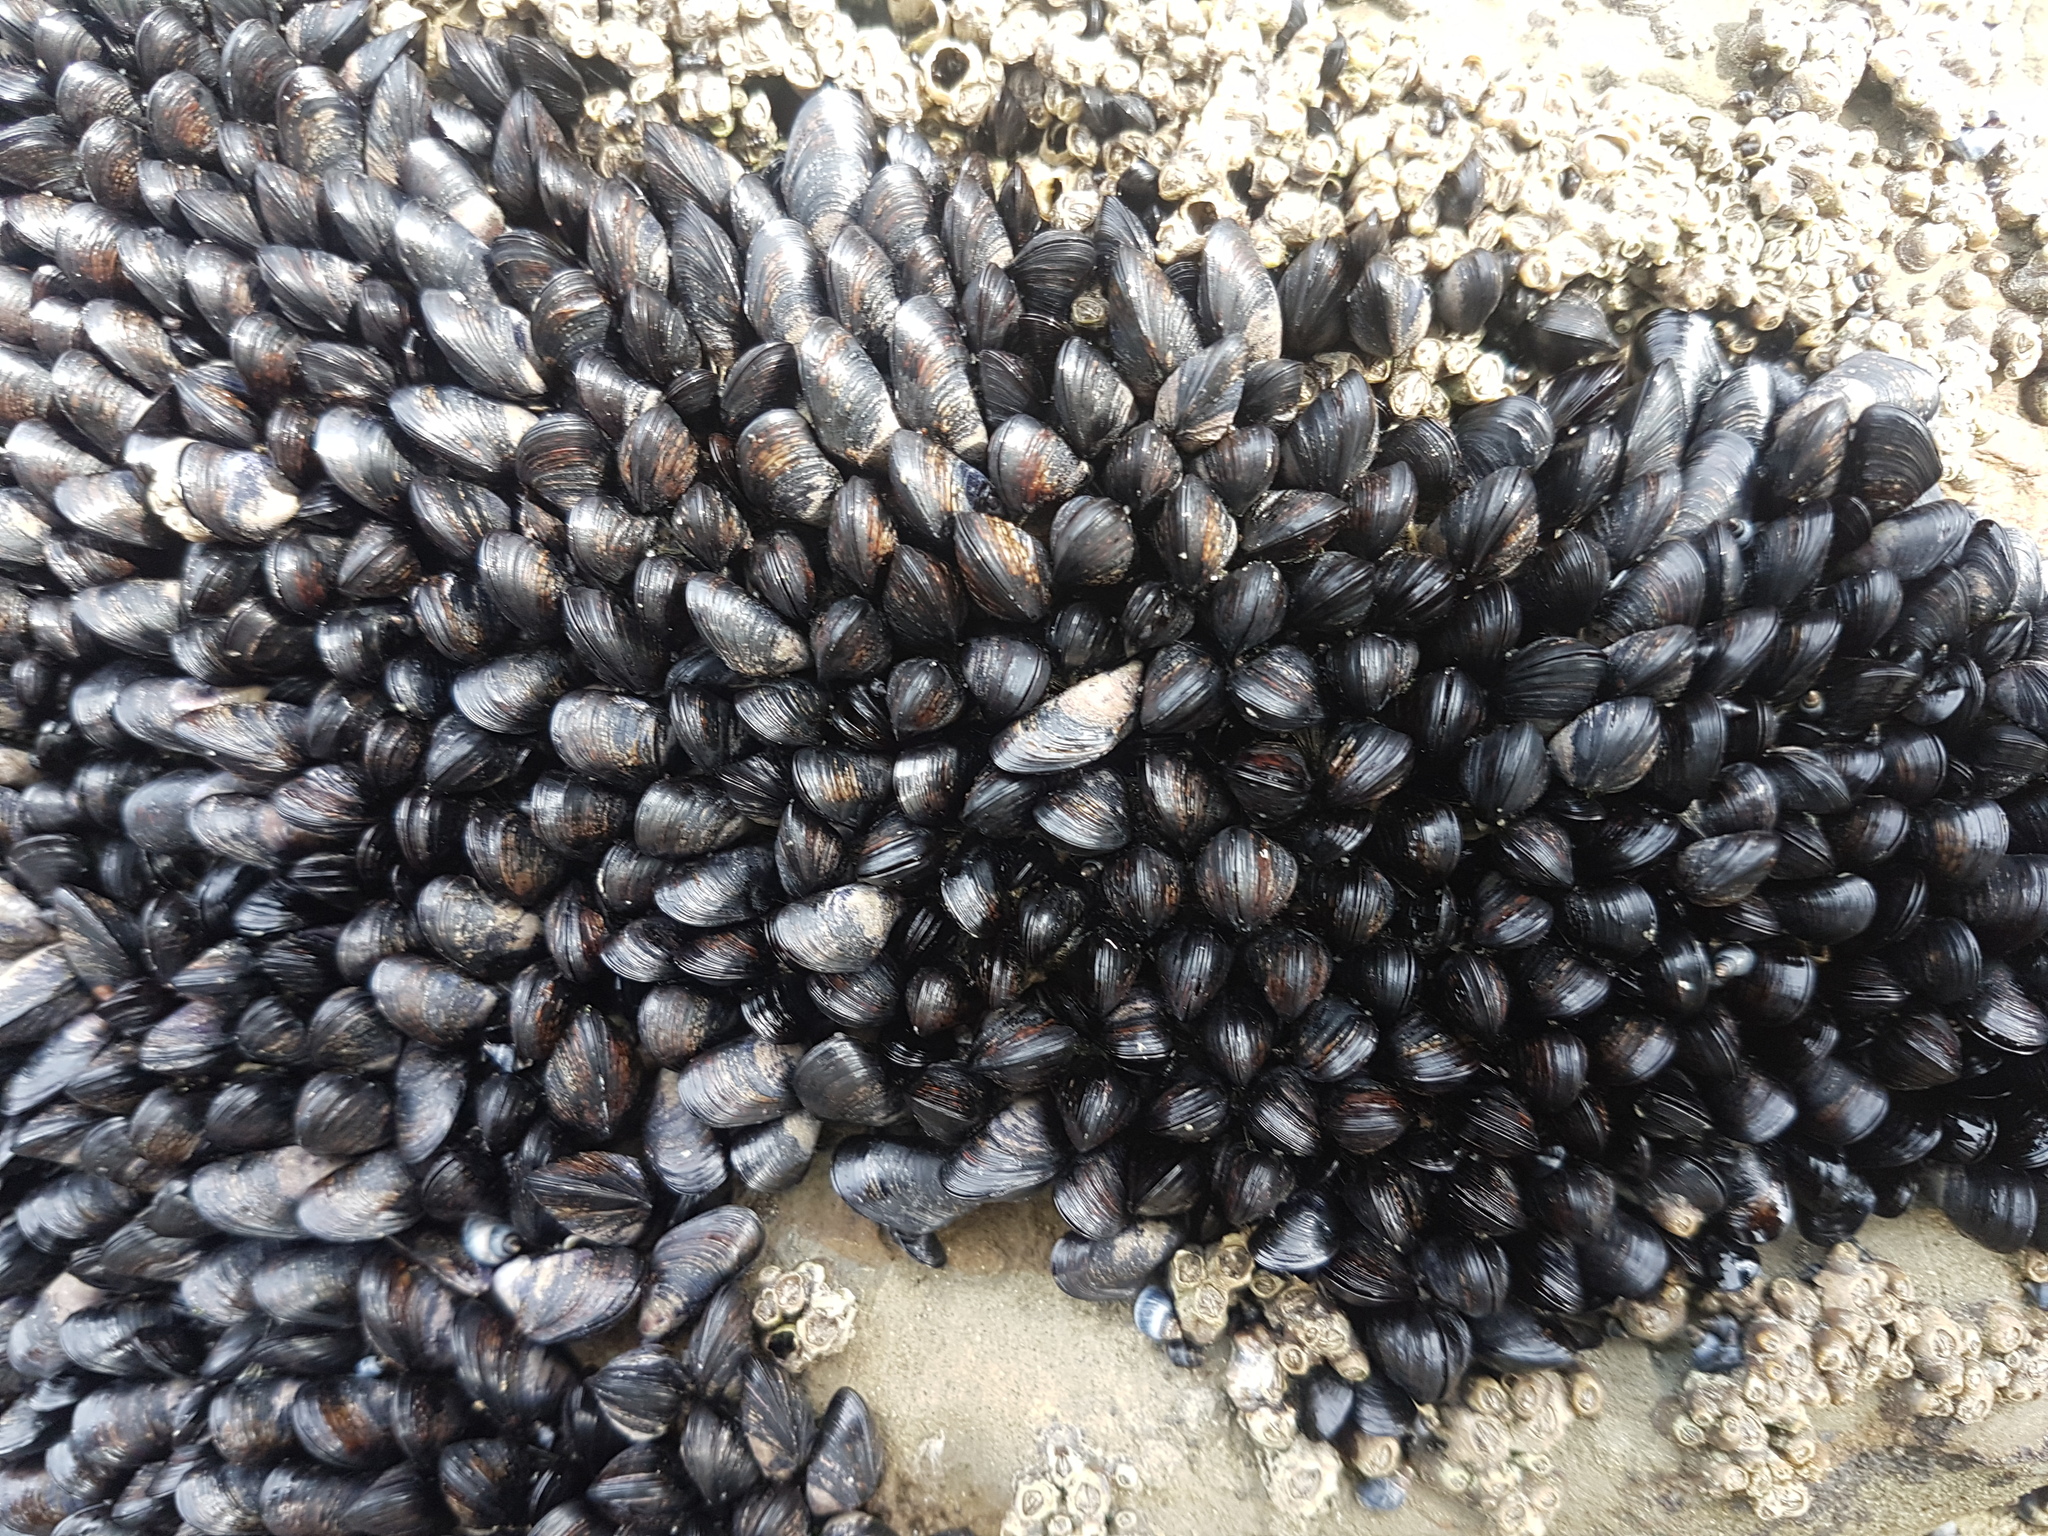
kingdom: Animalia
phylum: Mollusca
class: Bivalvia
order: Mytilida
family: Mytilidae
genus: Xenostrobus
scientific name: Xenostrobus neozelanicus
